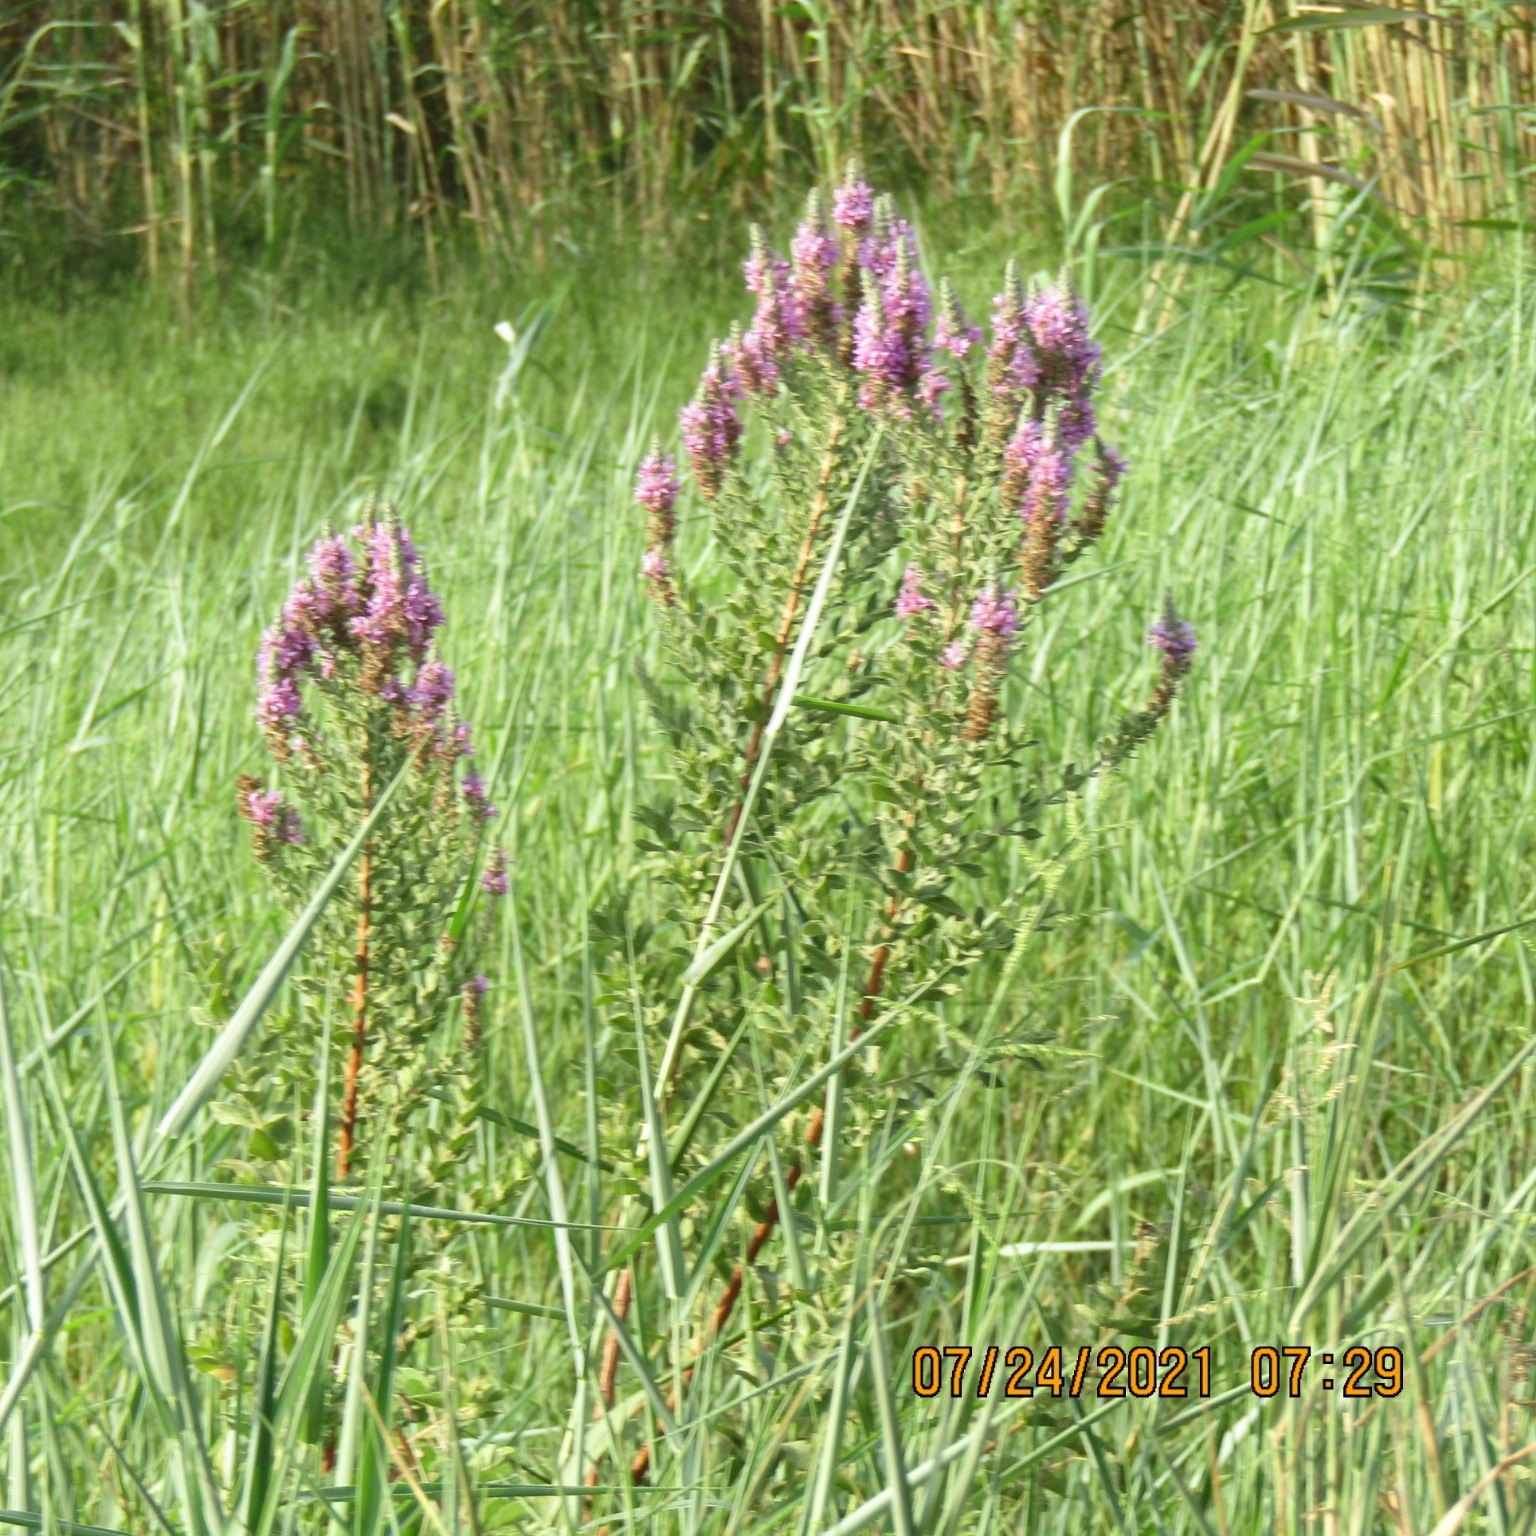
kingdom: Plantae
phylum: Tracheophyta
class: Magnoliopsida
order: Myrtales
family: Lythraceae
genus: Lythrum
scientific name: Lythrum salicaria
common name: Purple loosestrife
